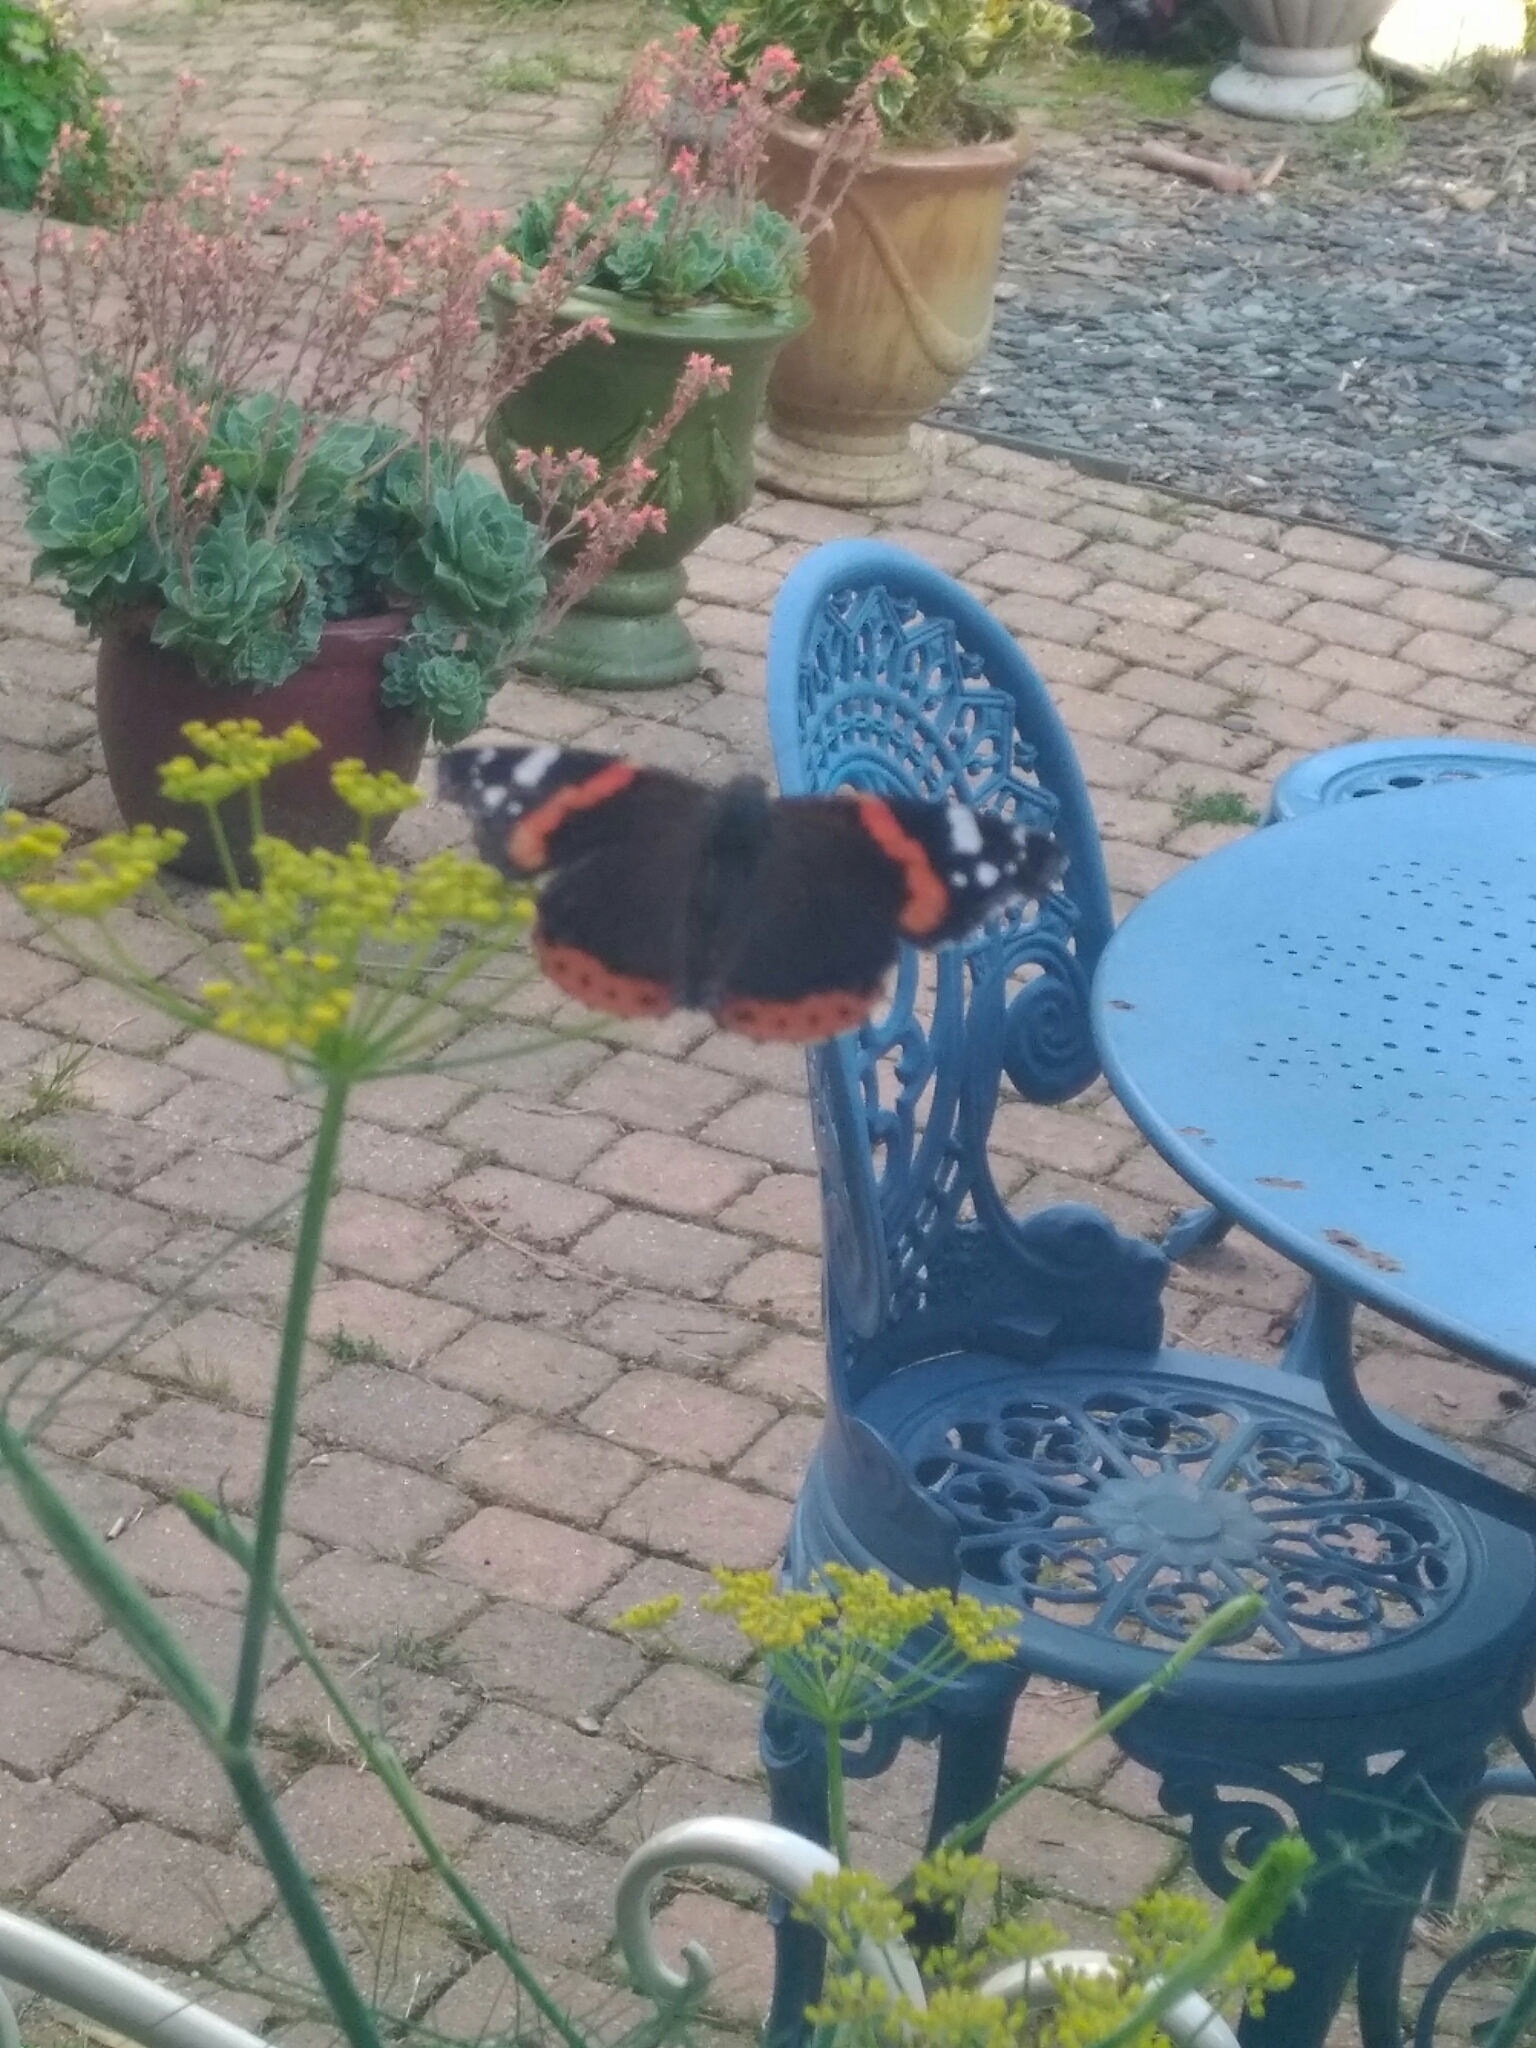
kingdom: Animalia
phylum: Arthropoda
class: Insecta
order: Lepidoptera
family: Nymphalidae
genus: Vanessa
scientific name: Vanessa atalanta
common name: Red admiral
